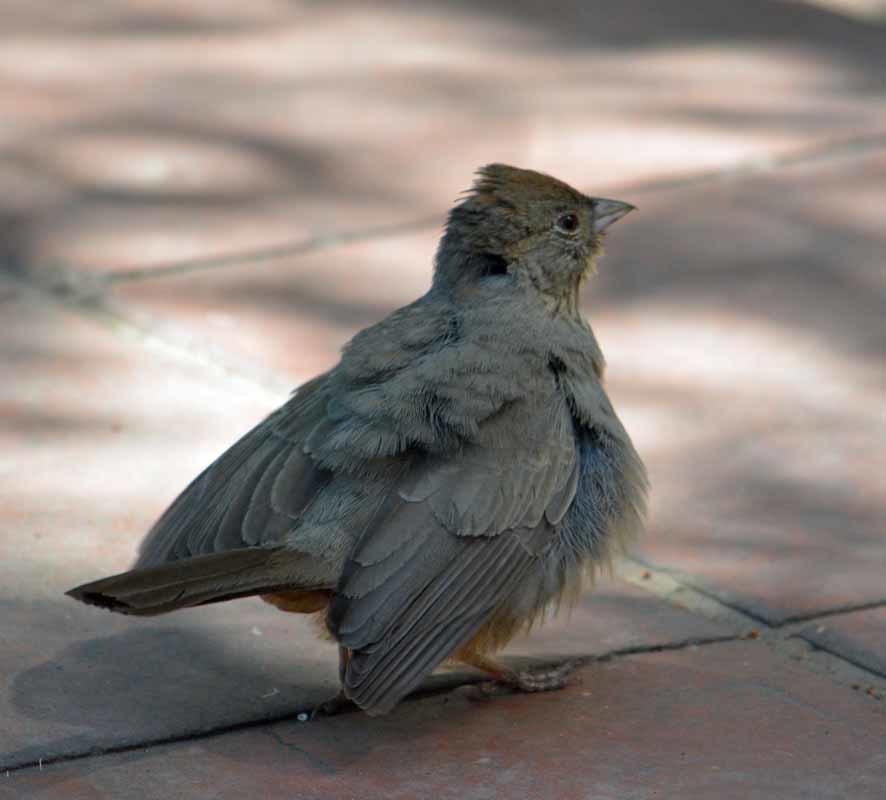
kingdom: Animalia
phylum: Chordata
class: Aves
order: Passeriformes
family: Passerellidae
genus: Melozone
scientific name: Melozone fusca
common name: Canyon towhee
